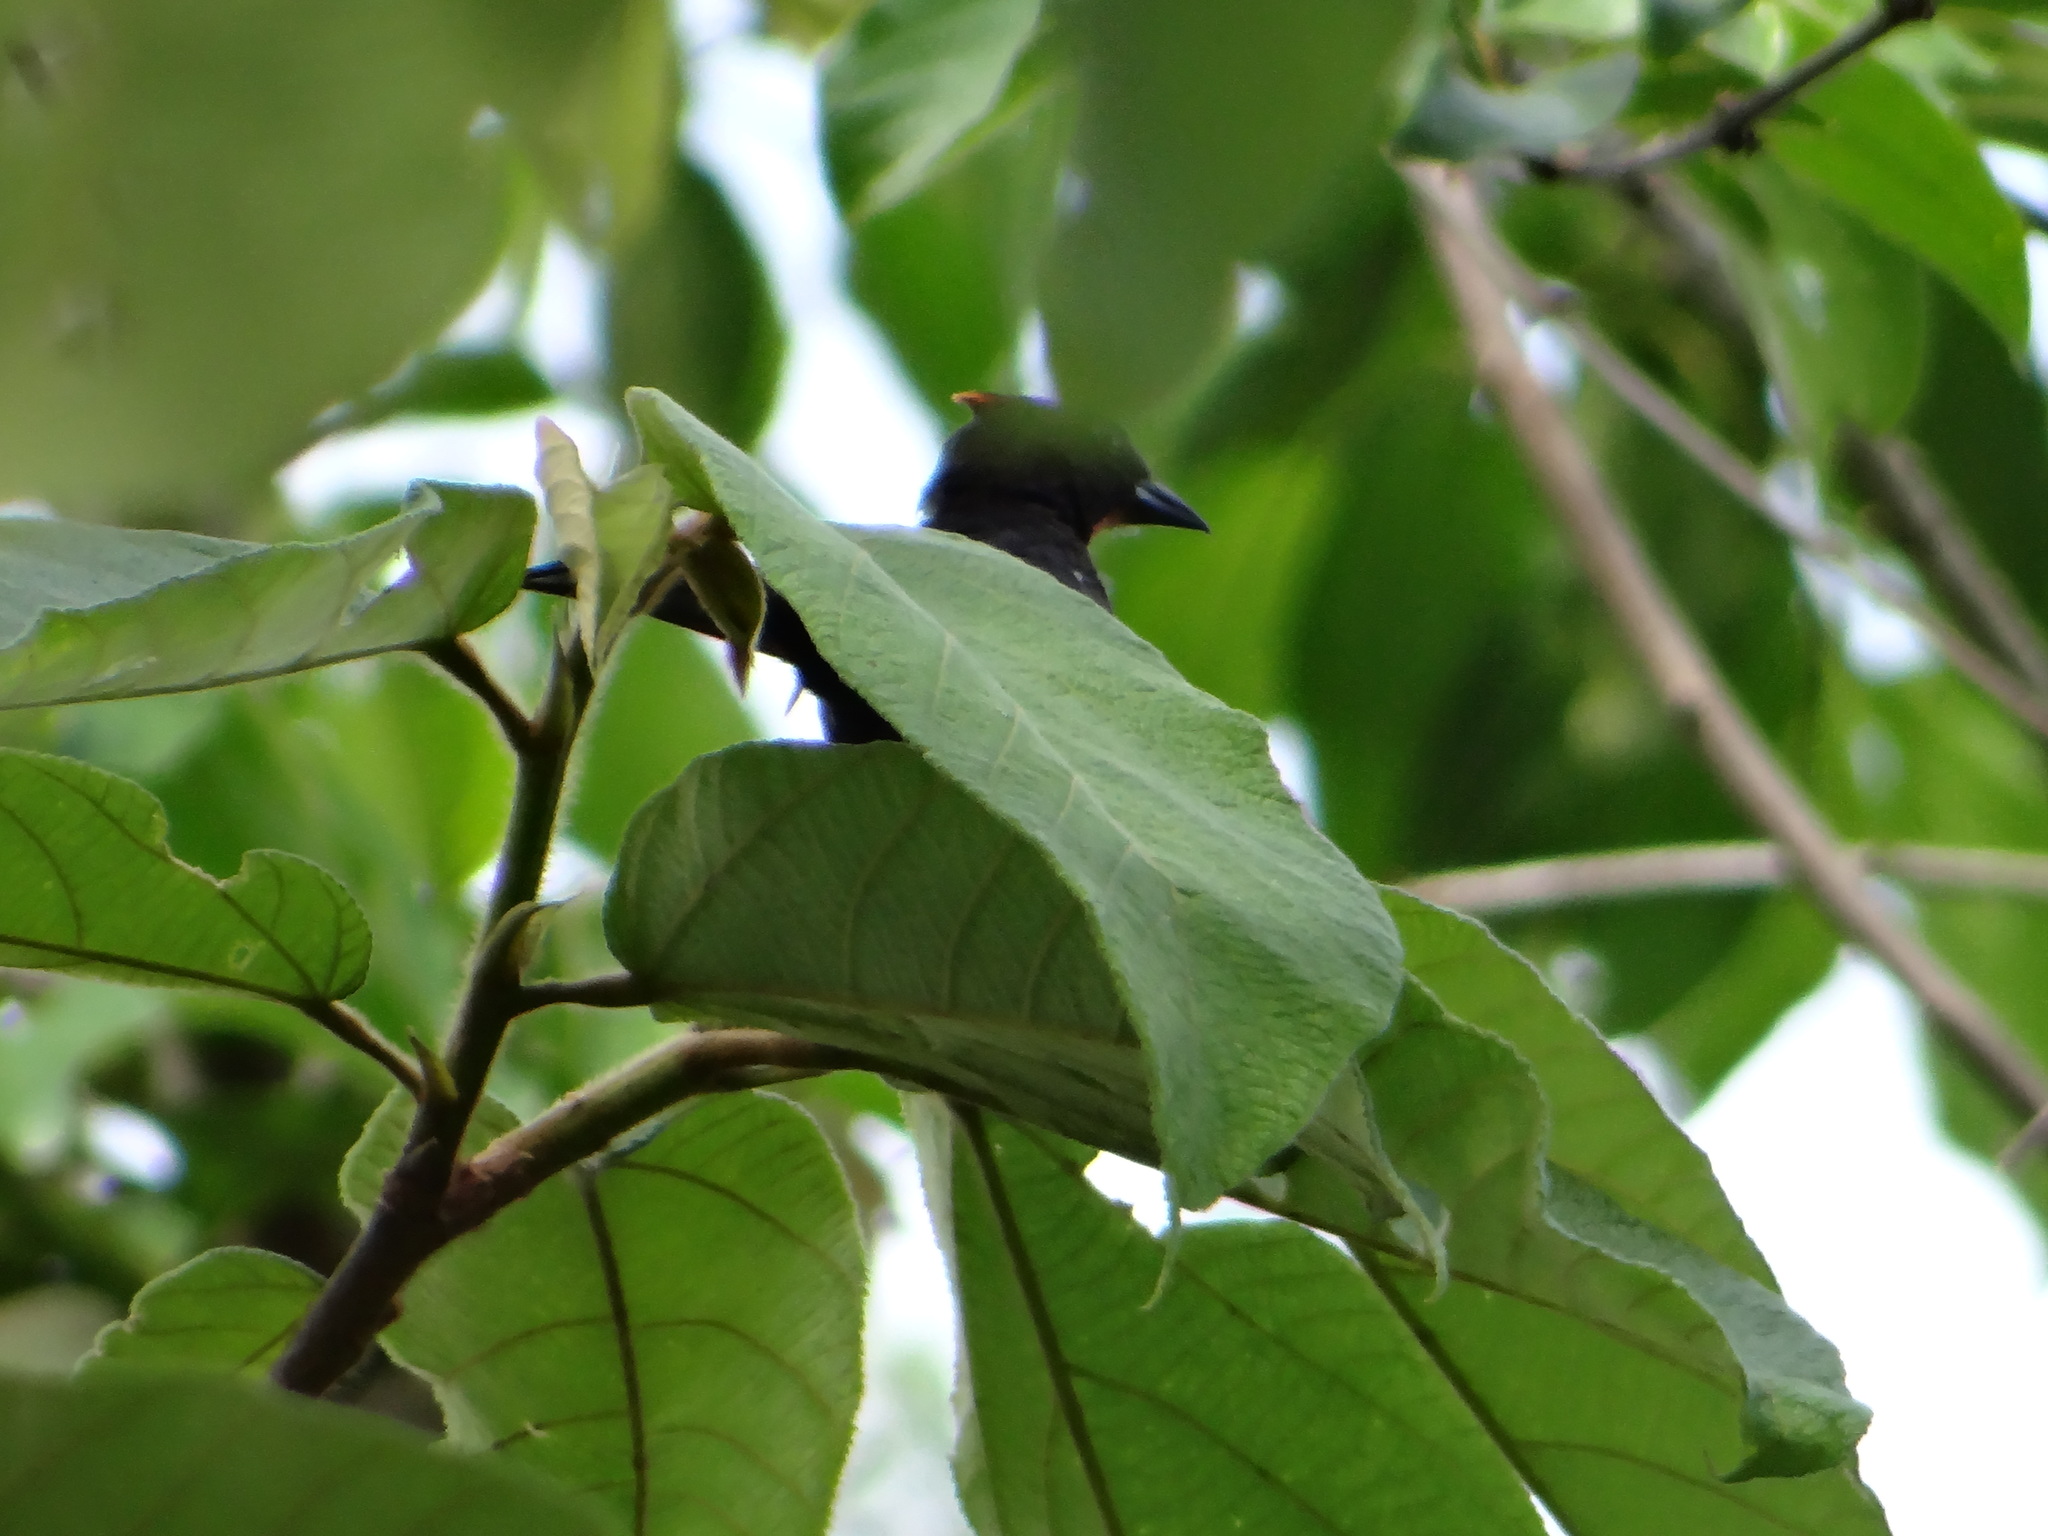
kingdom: Animalia
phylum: Chordata
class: Aves
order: Passeriformes
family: Thraupidae
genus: Loriotus
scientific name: Loriotus cristatus
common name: Flame-crested tanager
